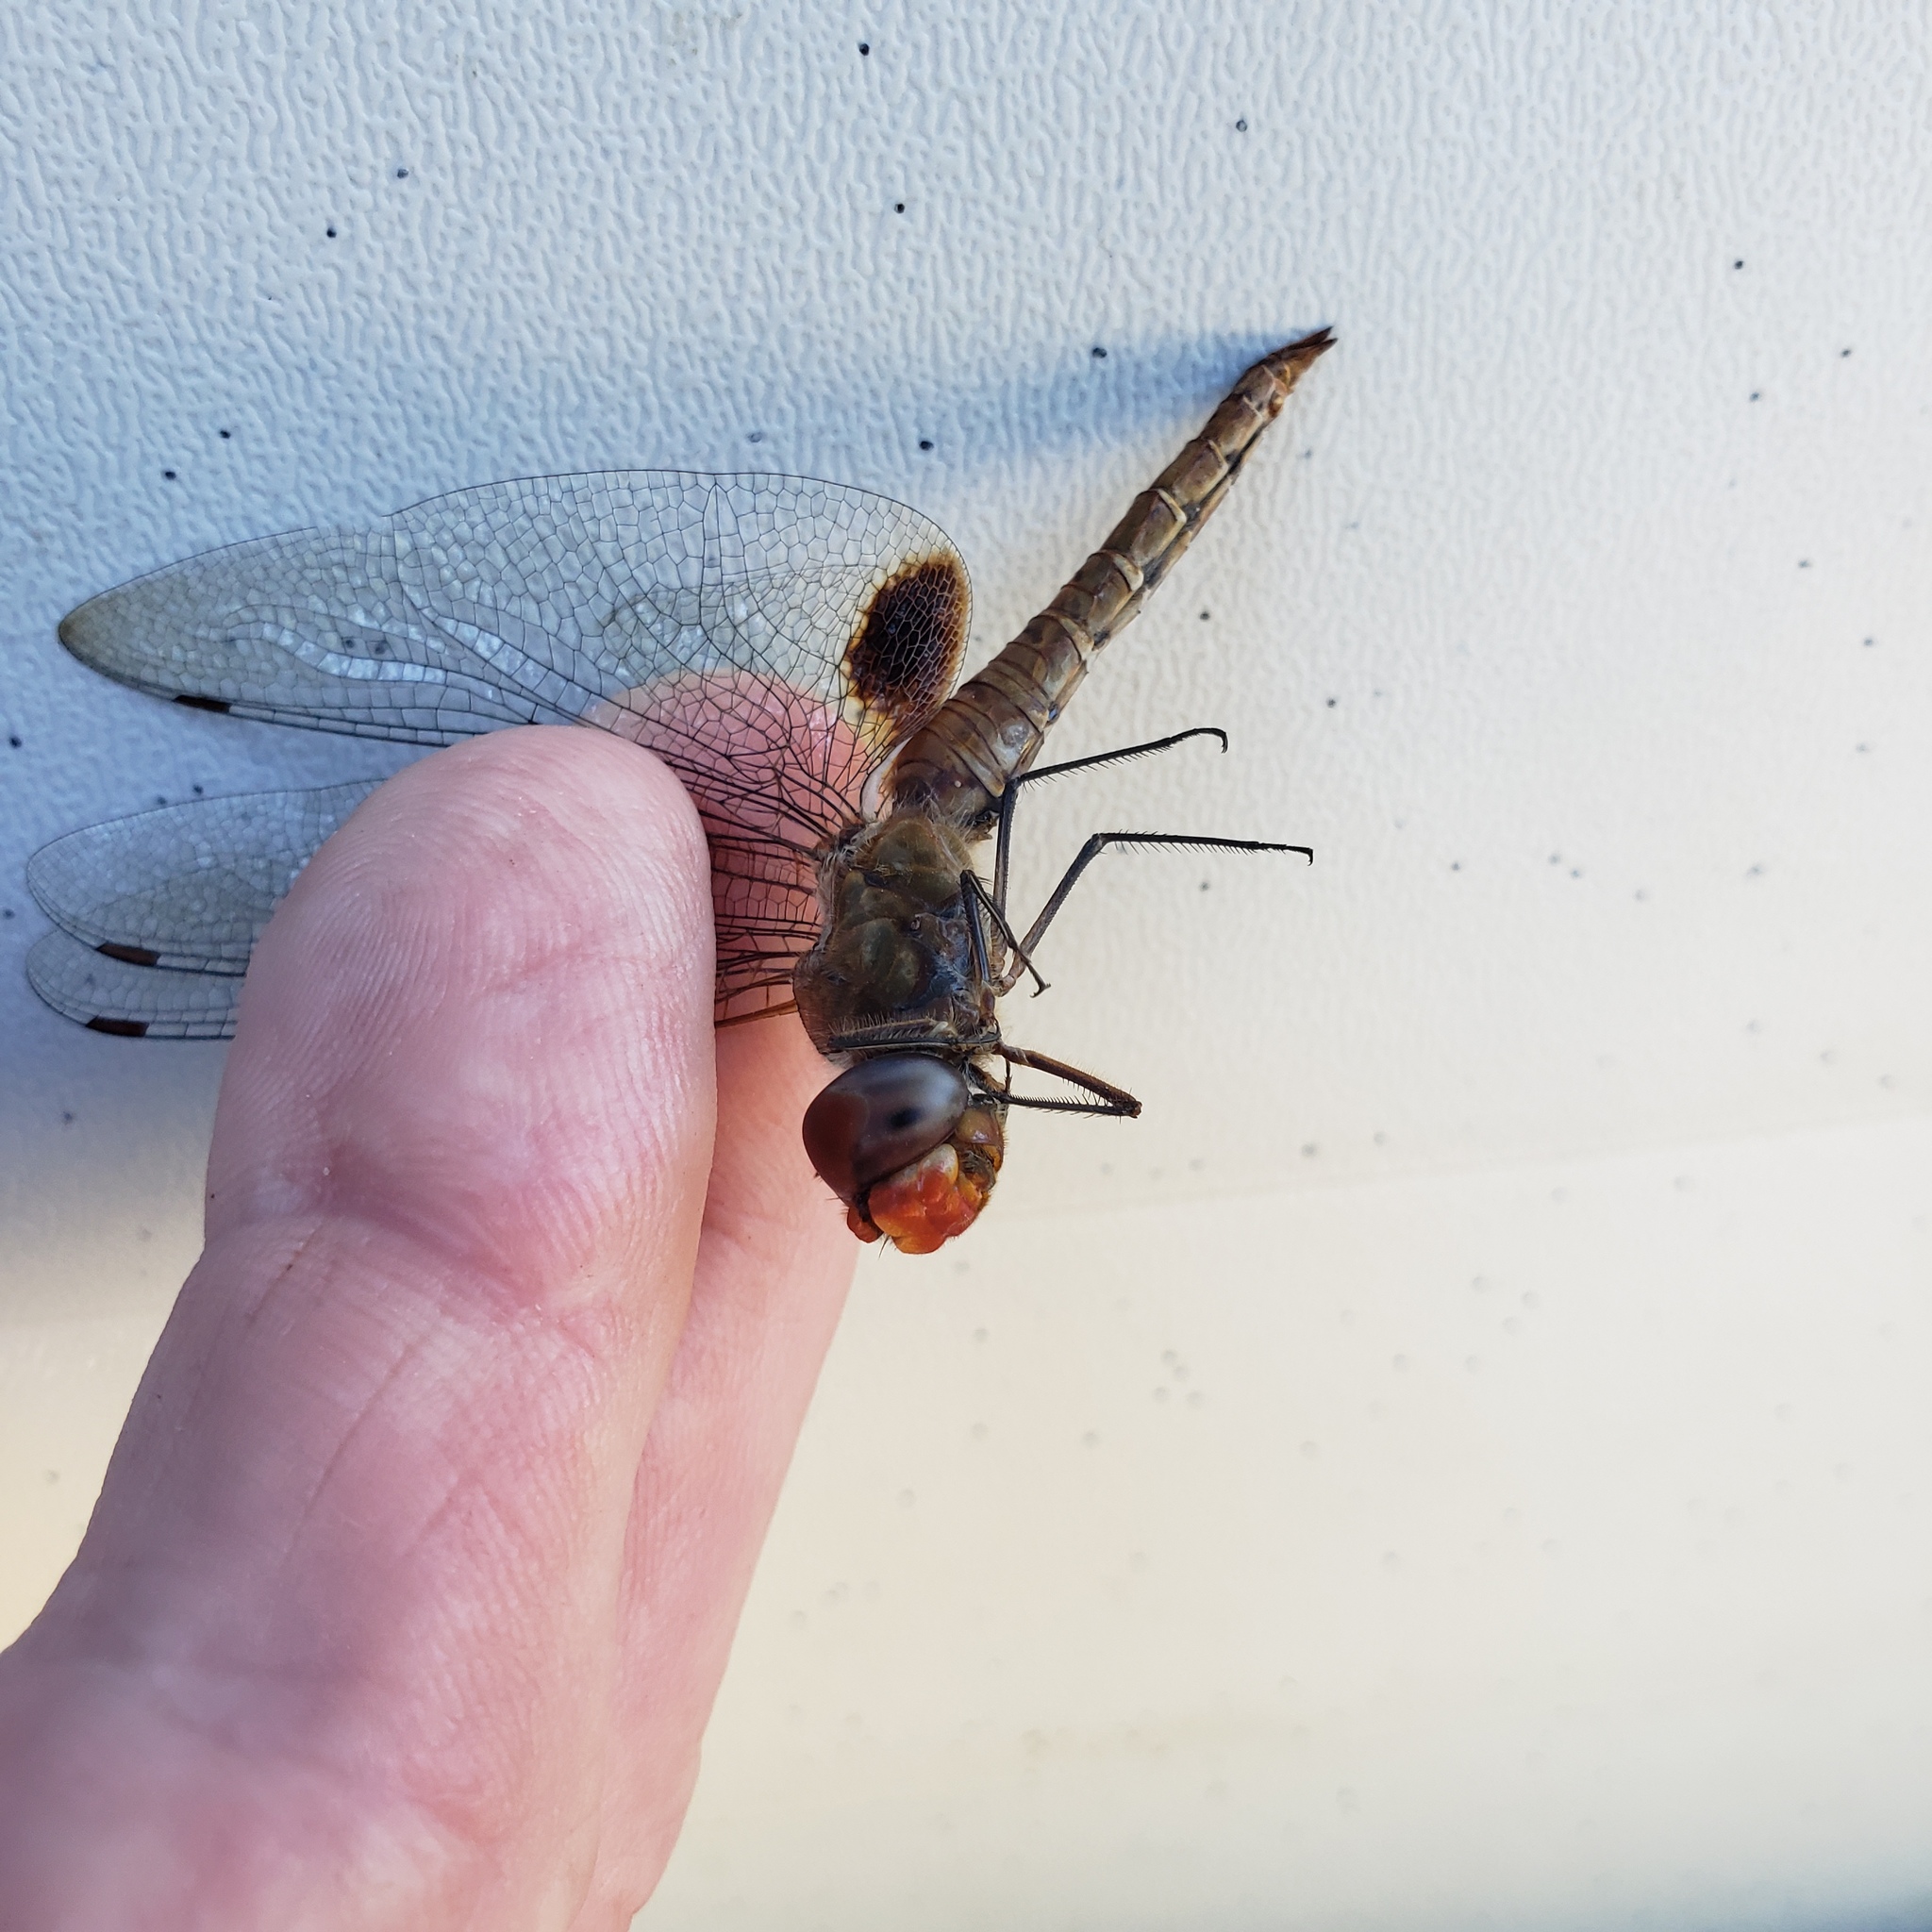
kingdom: Animalia
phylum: Arthropoda
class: Insecta
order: Odonata
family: Libellulidae
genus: Pantala
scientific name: Pantala hymenaea
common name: Spot-winged glider
